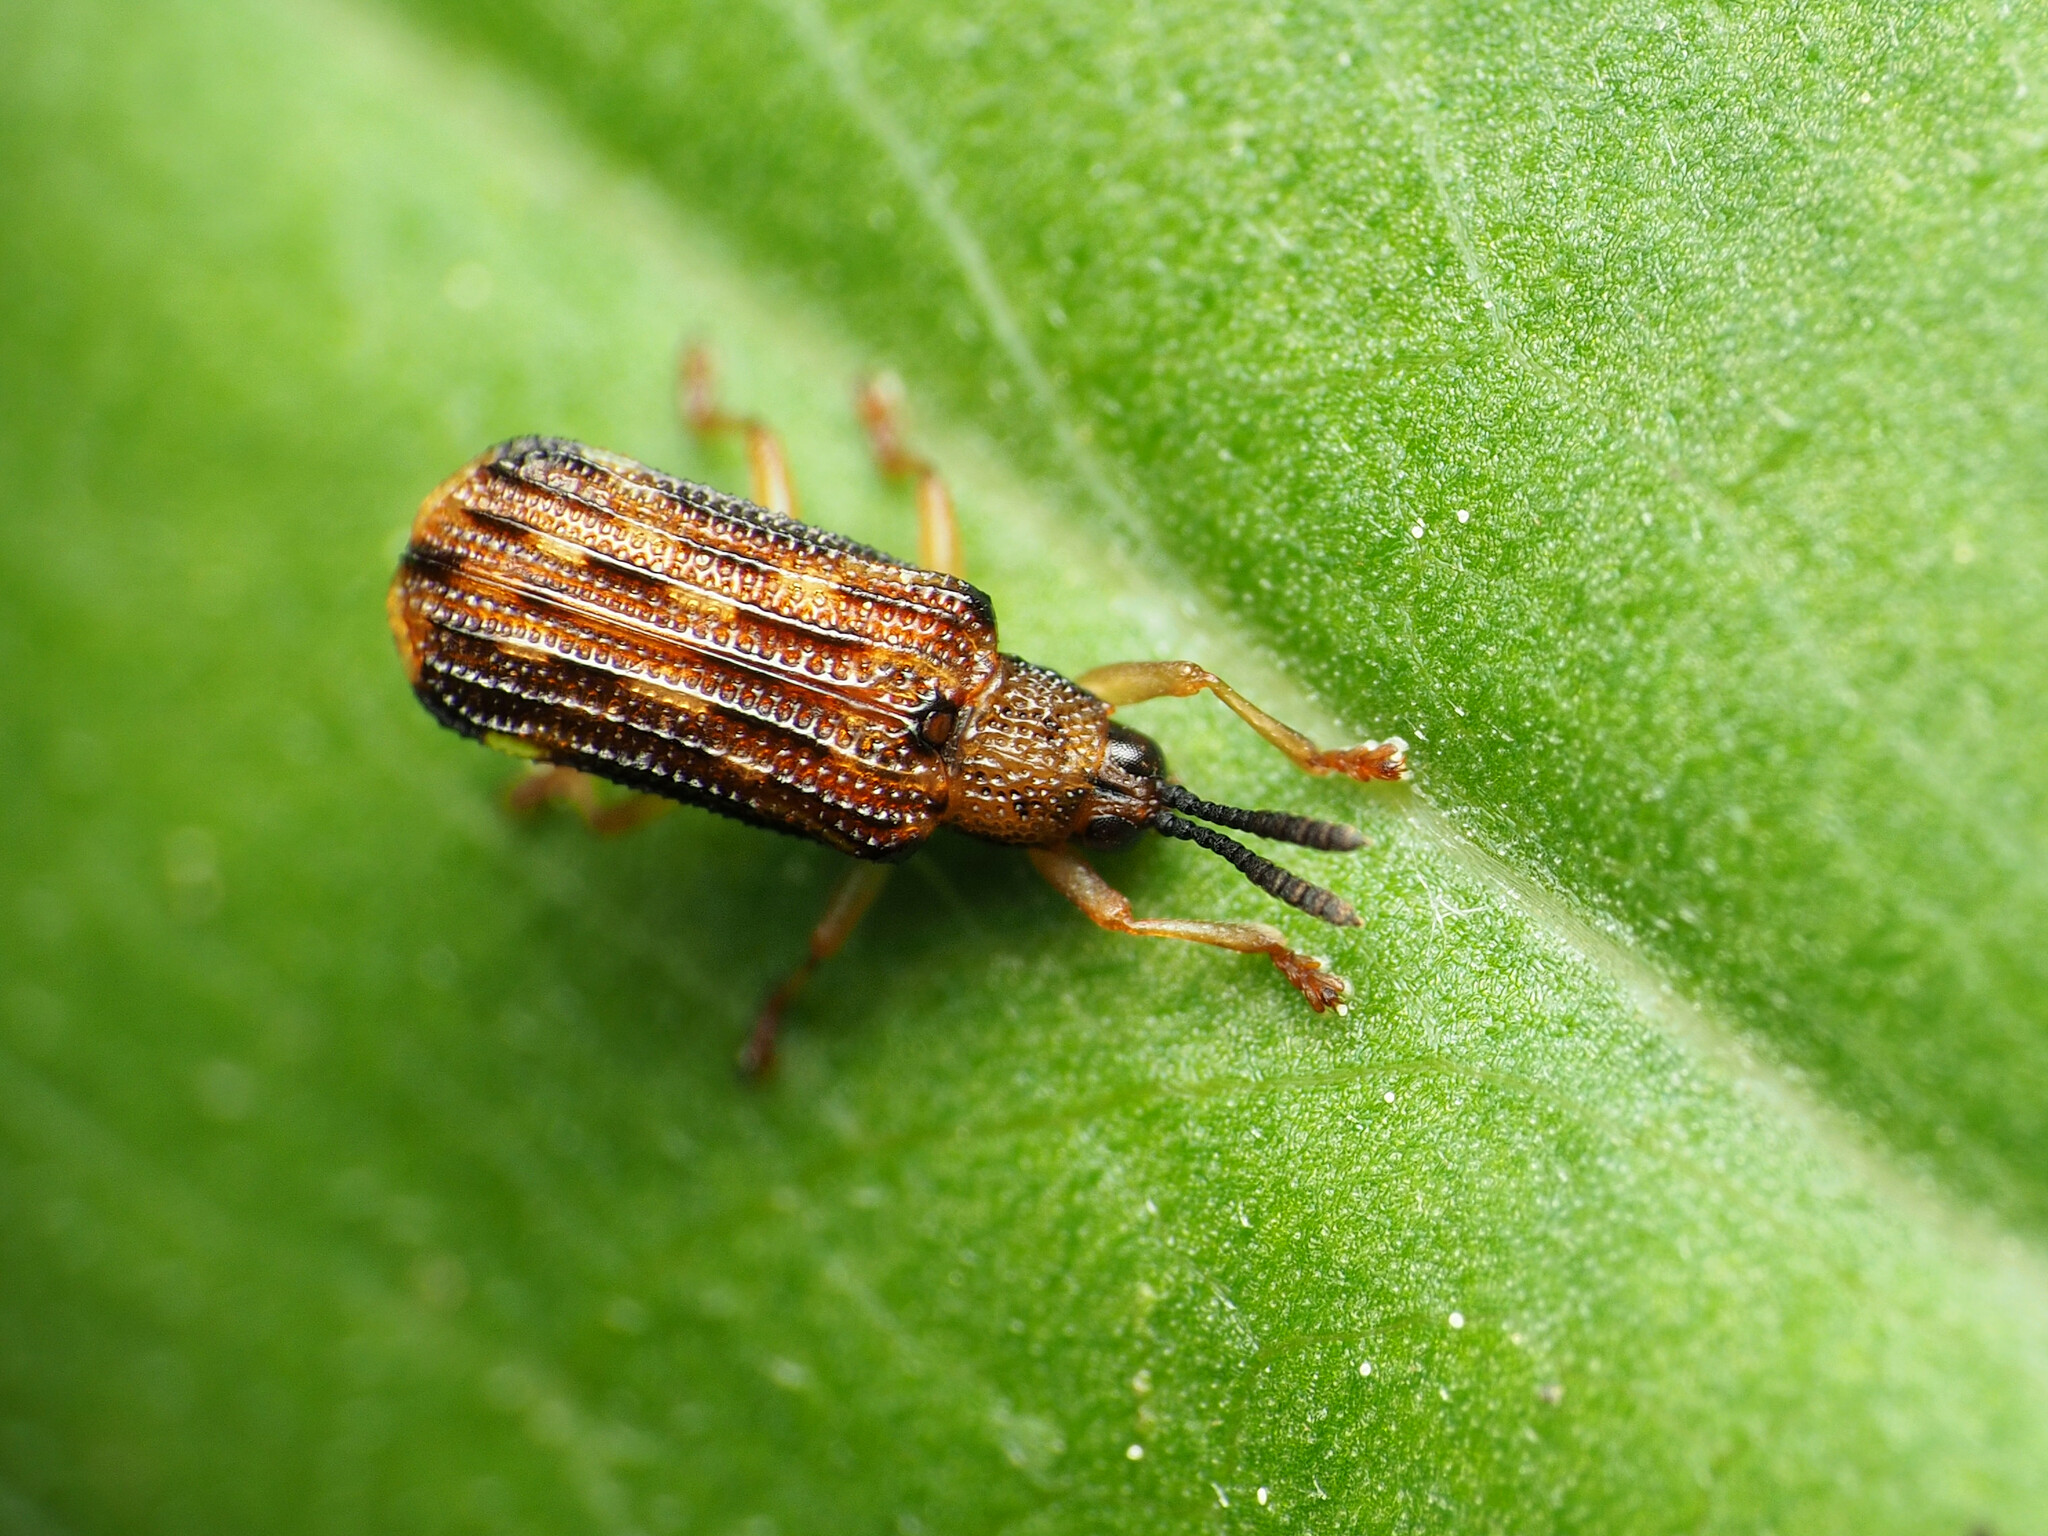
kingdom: Animalia
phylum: Arthropoda
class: Insecta
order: Coleoptera
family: Chrysomelidae
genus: Sumitrosis
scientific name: Sumitrosis inaequalis
